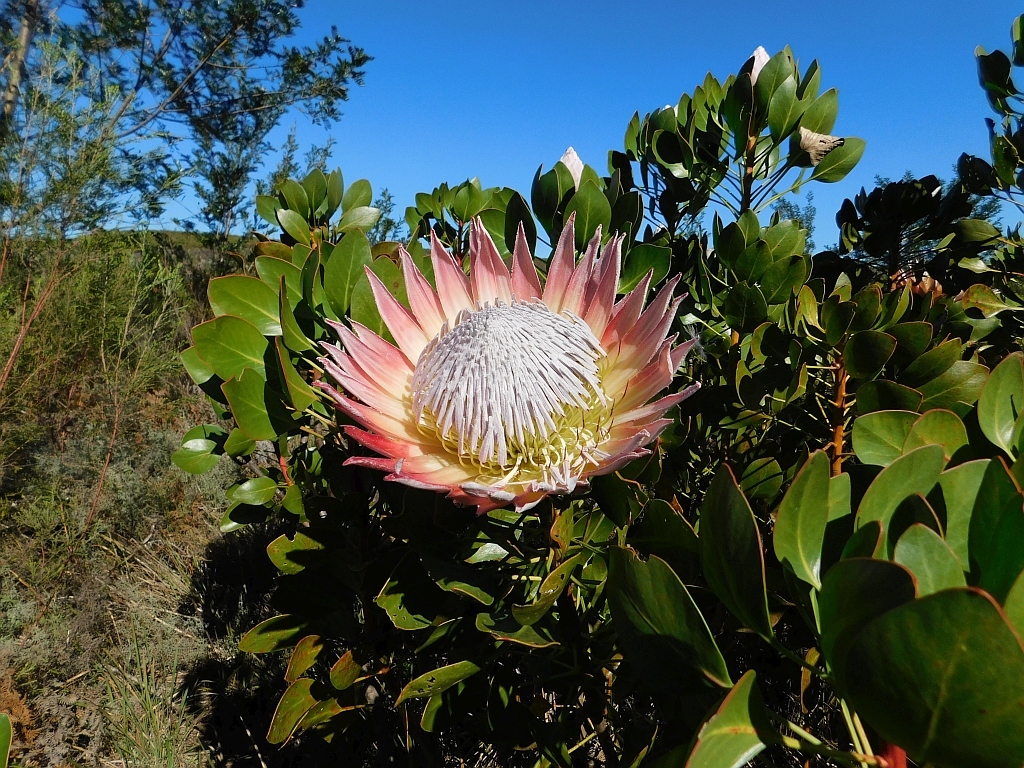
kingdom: Plantae
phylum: Tracheophyta
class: Magnoliopsida
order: Proteales
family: Proteaceae
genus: Protea
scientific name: Protea cynaroides
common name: King protea
